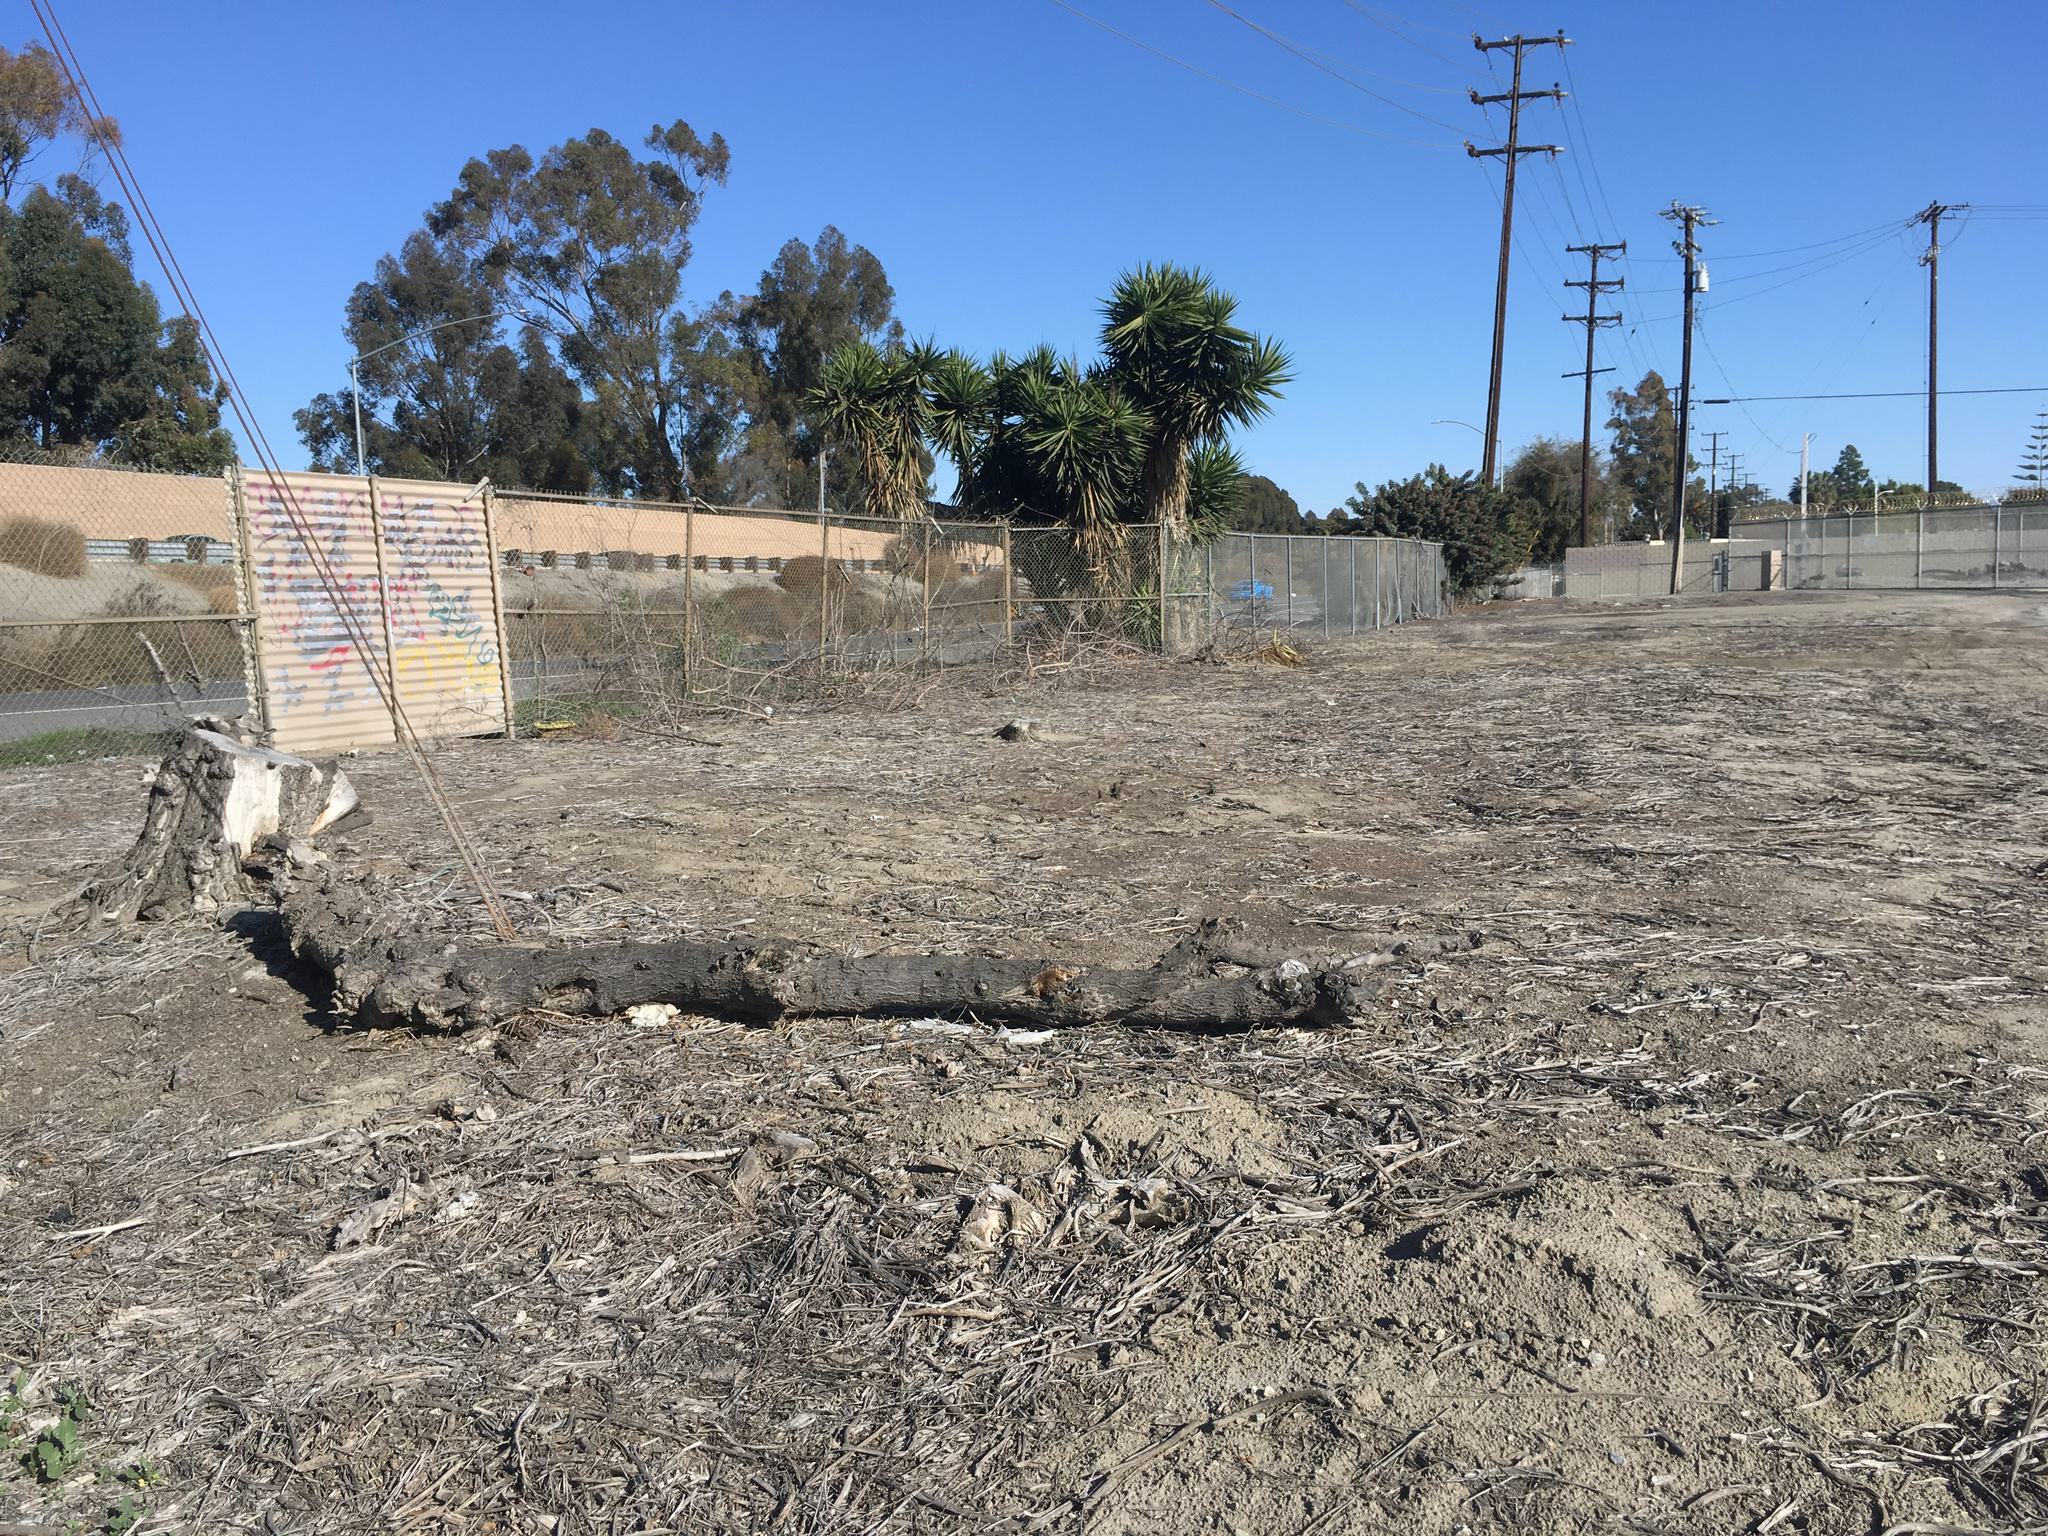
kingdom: Plantae
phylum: Tracheophyta
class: Magnoliopsida
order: Lamiales
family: Scrophulariaceae
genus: Myoporum
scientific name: Myoporum laetum
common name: Ngaio tree
